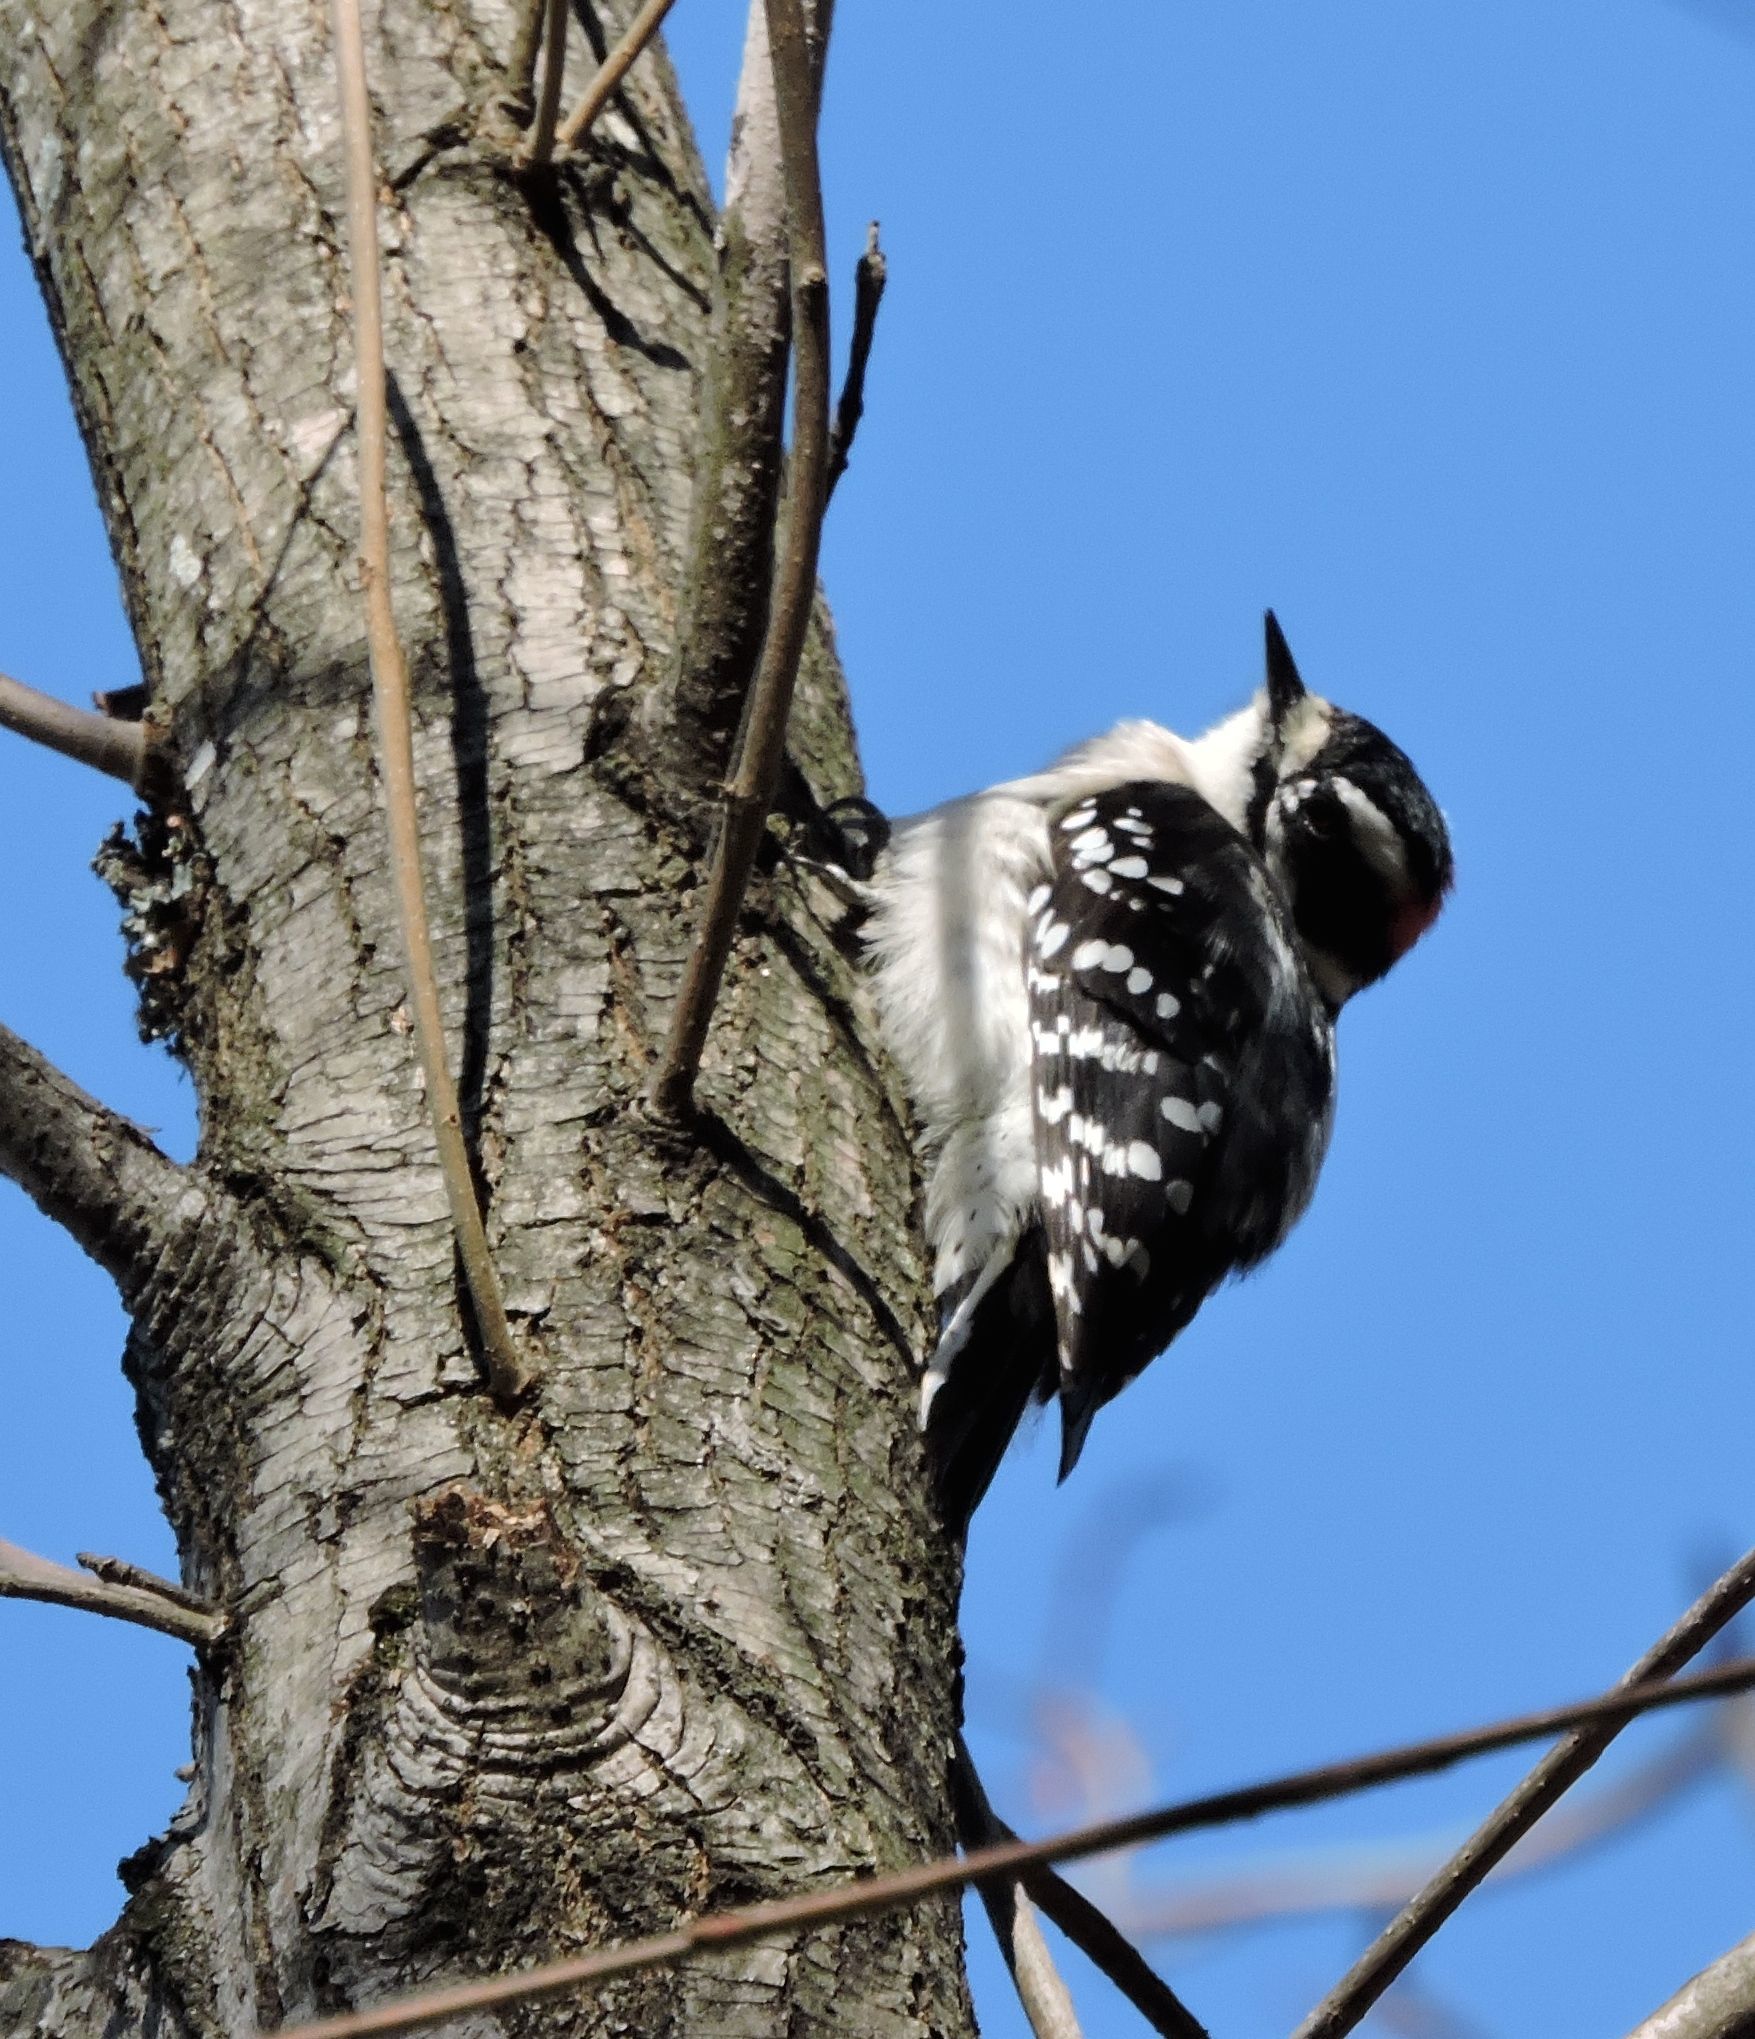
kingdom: Animalia
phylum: Chordata
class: Aves
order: Piciformes
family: Picidae
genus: Dryobates
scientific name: Dryobates pubescens
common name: Downy woodpecker
